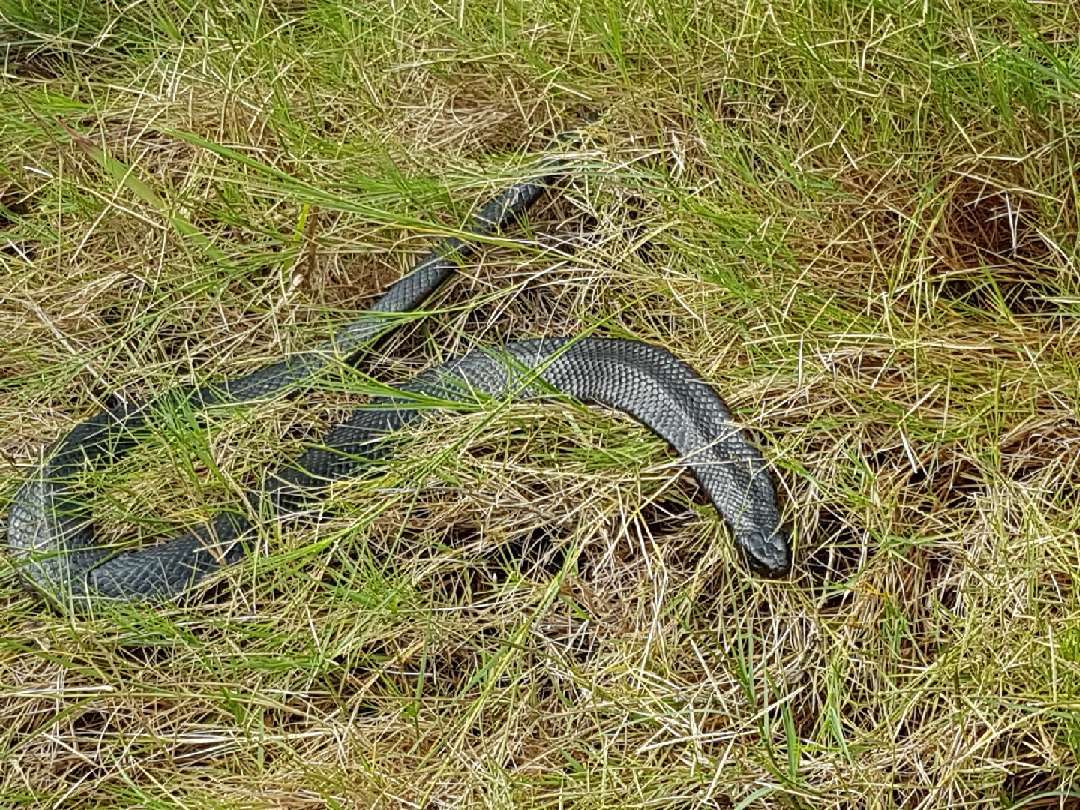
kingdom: Animalia
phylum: Chordata
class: Squamata
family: Elapidae
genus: Pseudechis
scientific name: Pseudechis porphyriacus
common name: Australian black snake
